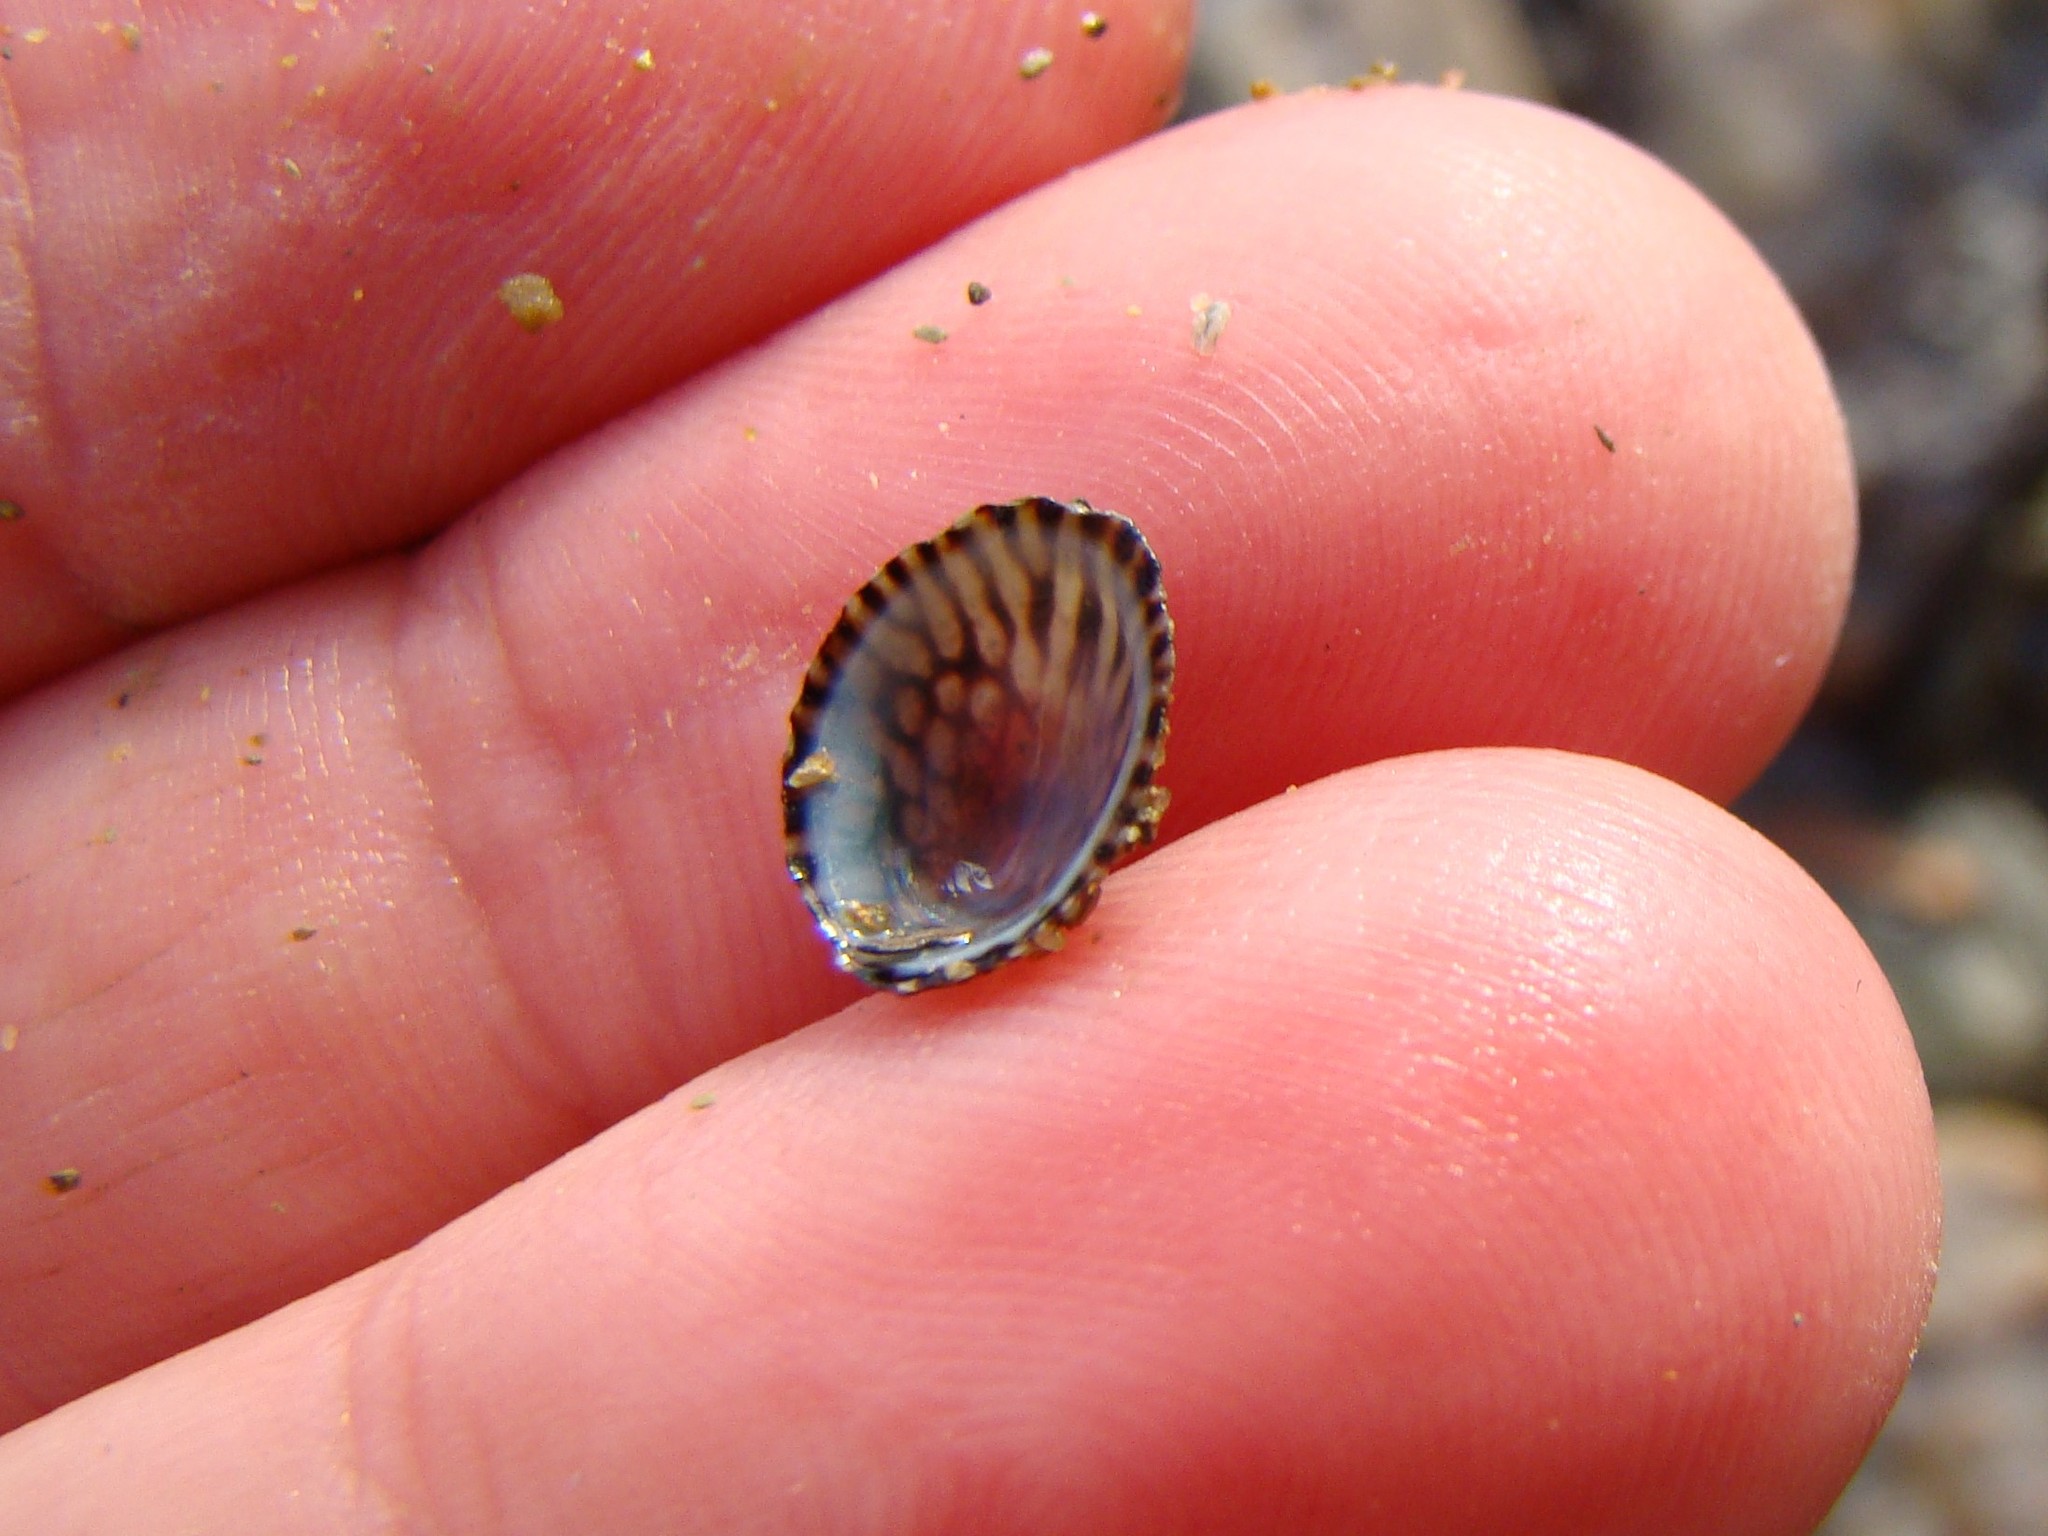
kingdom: Animalia
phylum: Mollusca
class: Gastropoda
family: Lottiidae
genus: Notoacmea
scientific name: Notoacmea potae
